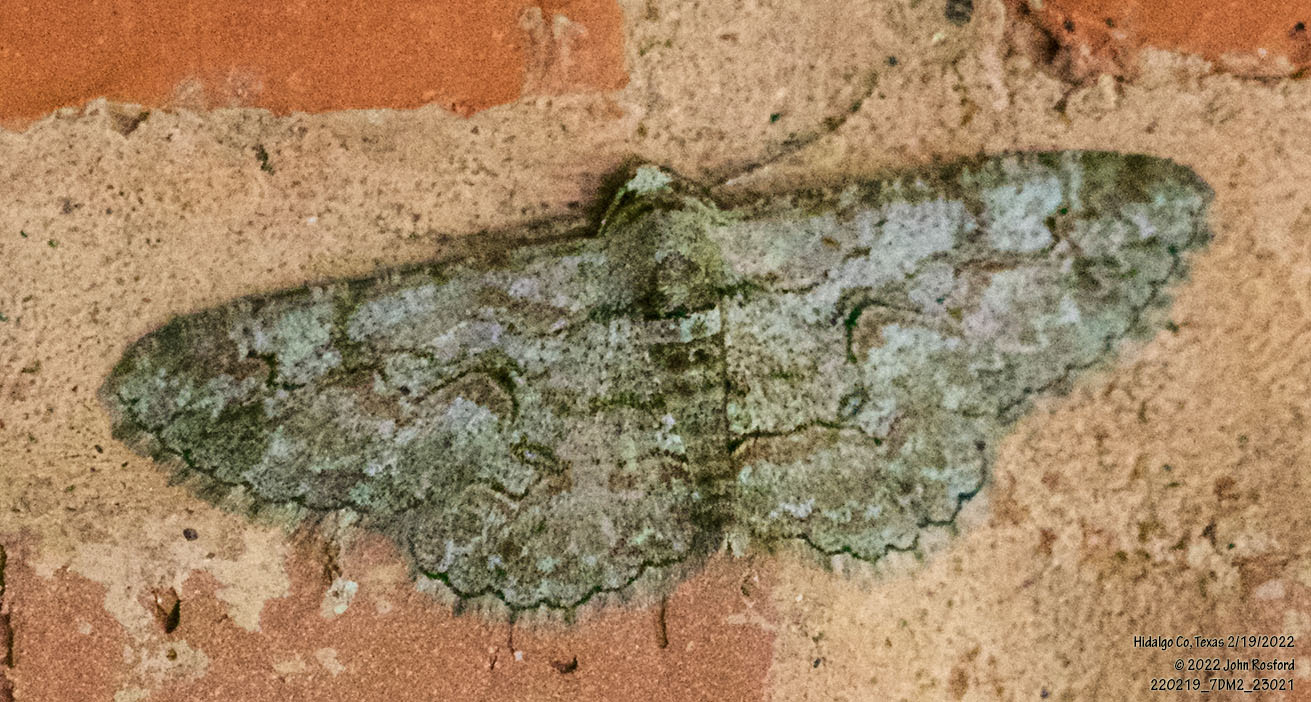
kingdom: Animalia
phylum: Arthropoda
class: Insecta
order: Lepidoptera
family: Geometridae
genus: Iridopsis
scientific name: Iridopsis defectaria
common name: Brown-shaded gray
